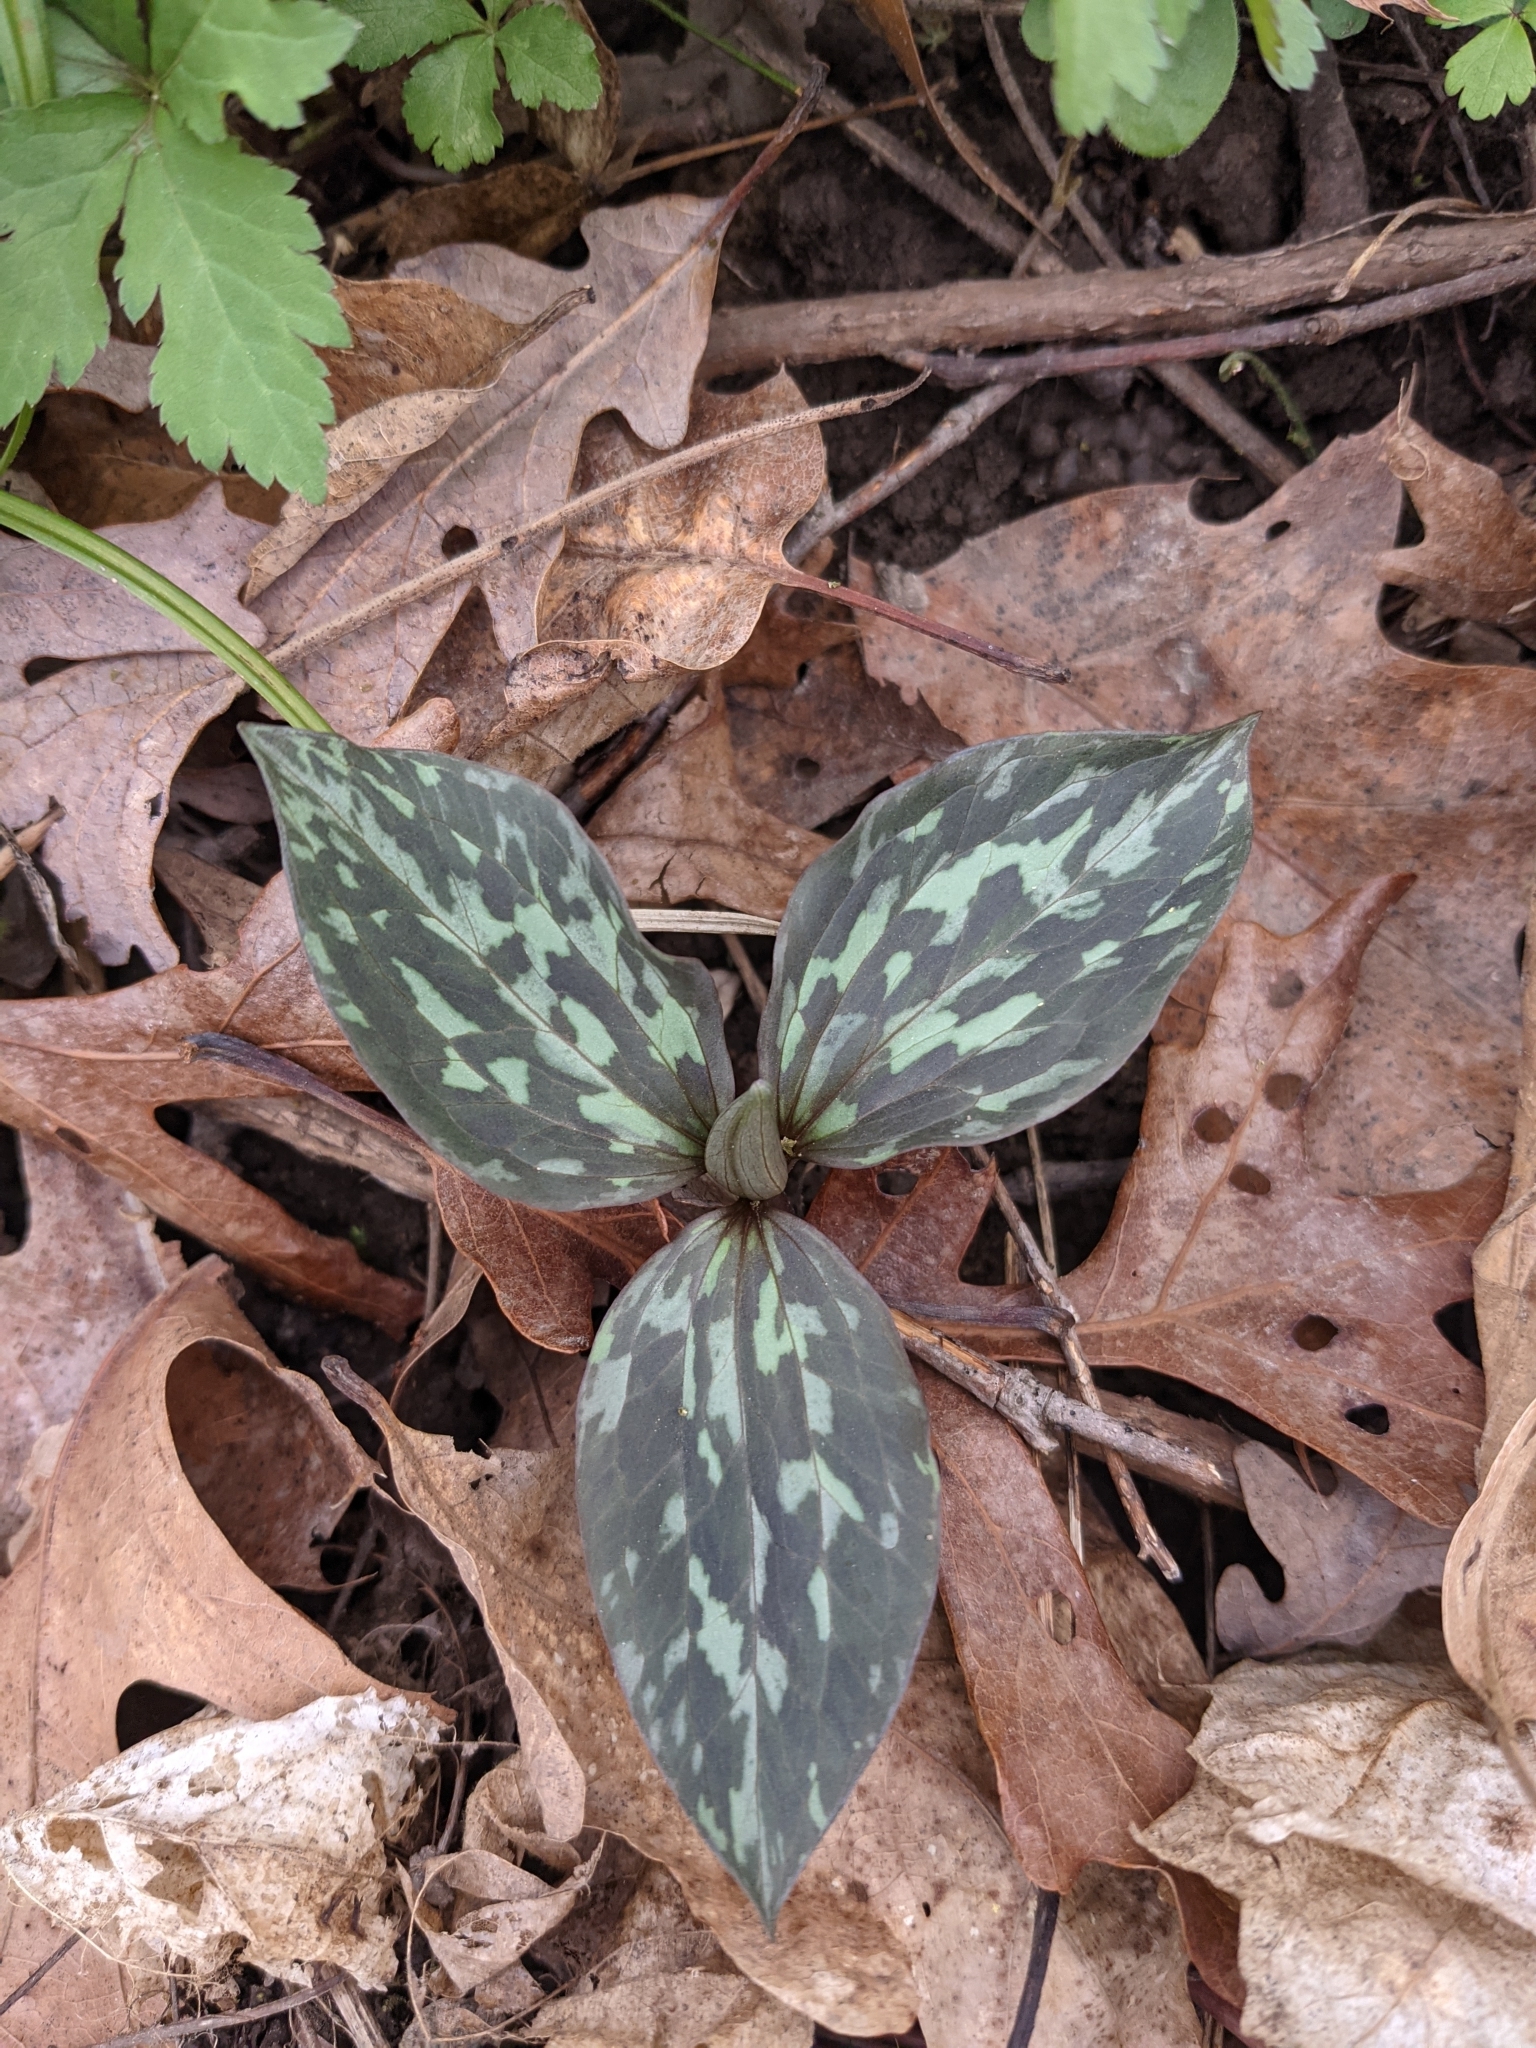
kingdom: Plantae
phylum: Tracheophyta
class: Liliopsida
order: Liliales
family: Melanthiaceae
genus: Trillium
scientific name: Trillium recurvatum
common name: Bloody butcher
